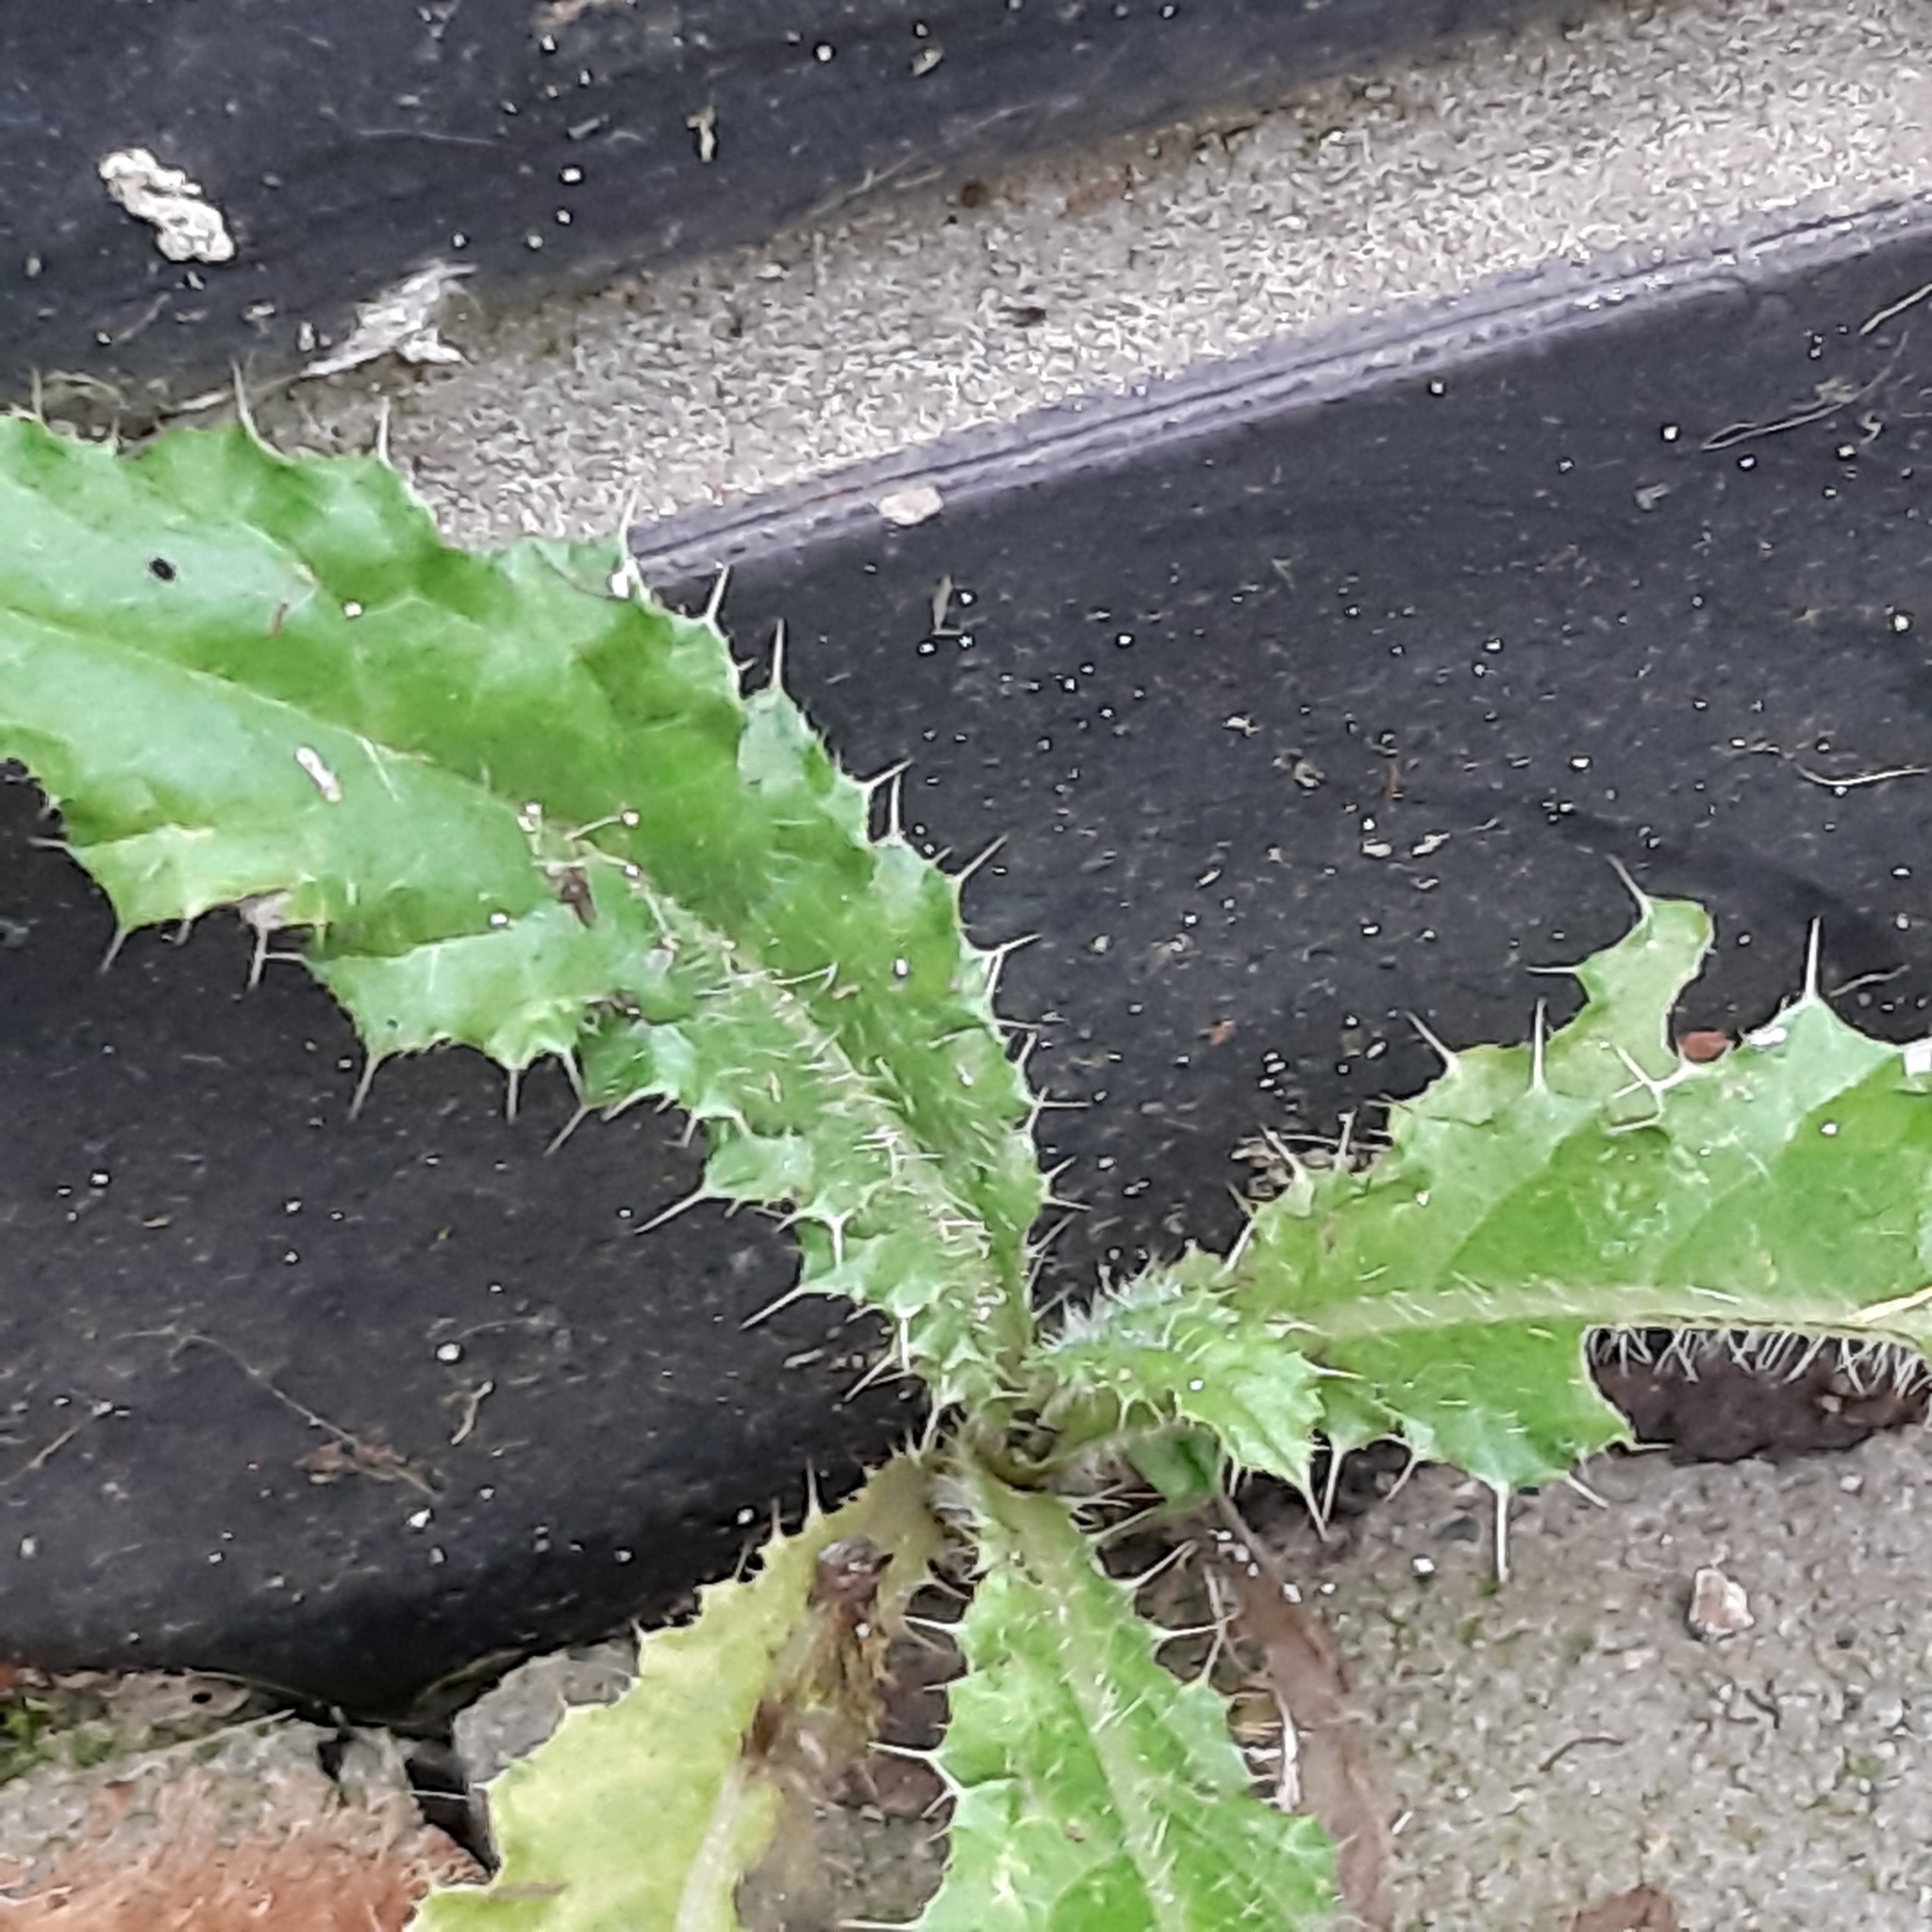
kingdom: Plantae
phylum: Tracheophyta
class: Magnoliopsida
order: Asterales
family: Asteraceae
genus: Cirsium
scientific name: Cirsium arvense
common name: Creeping thistle
